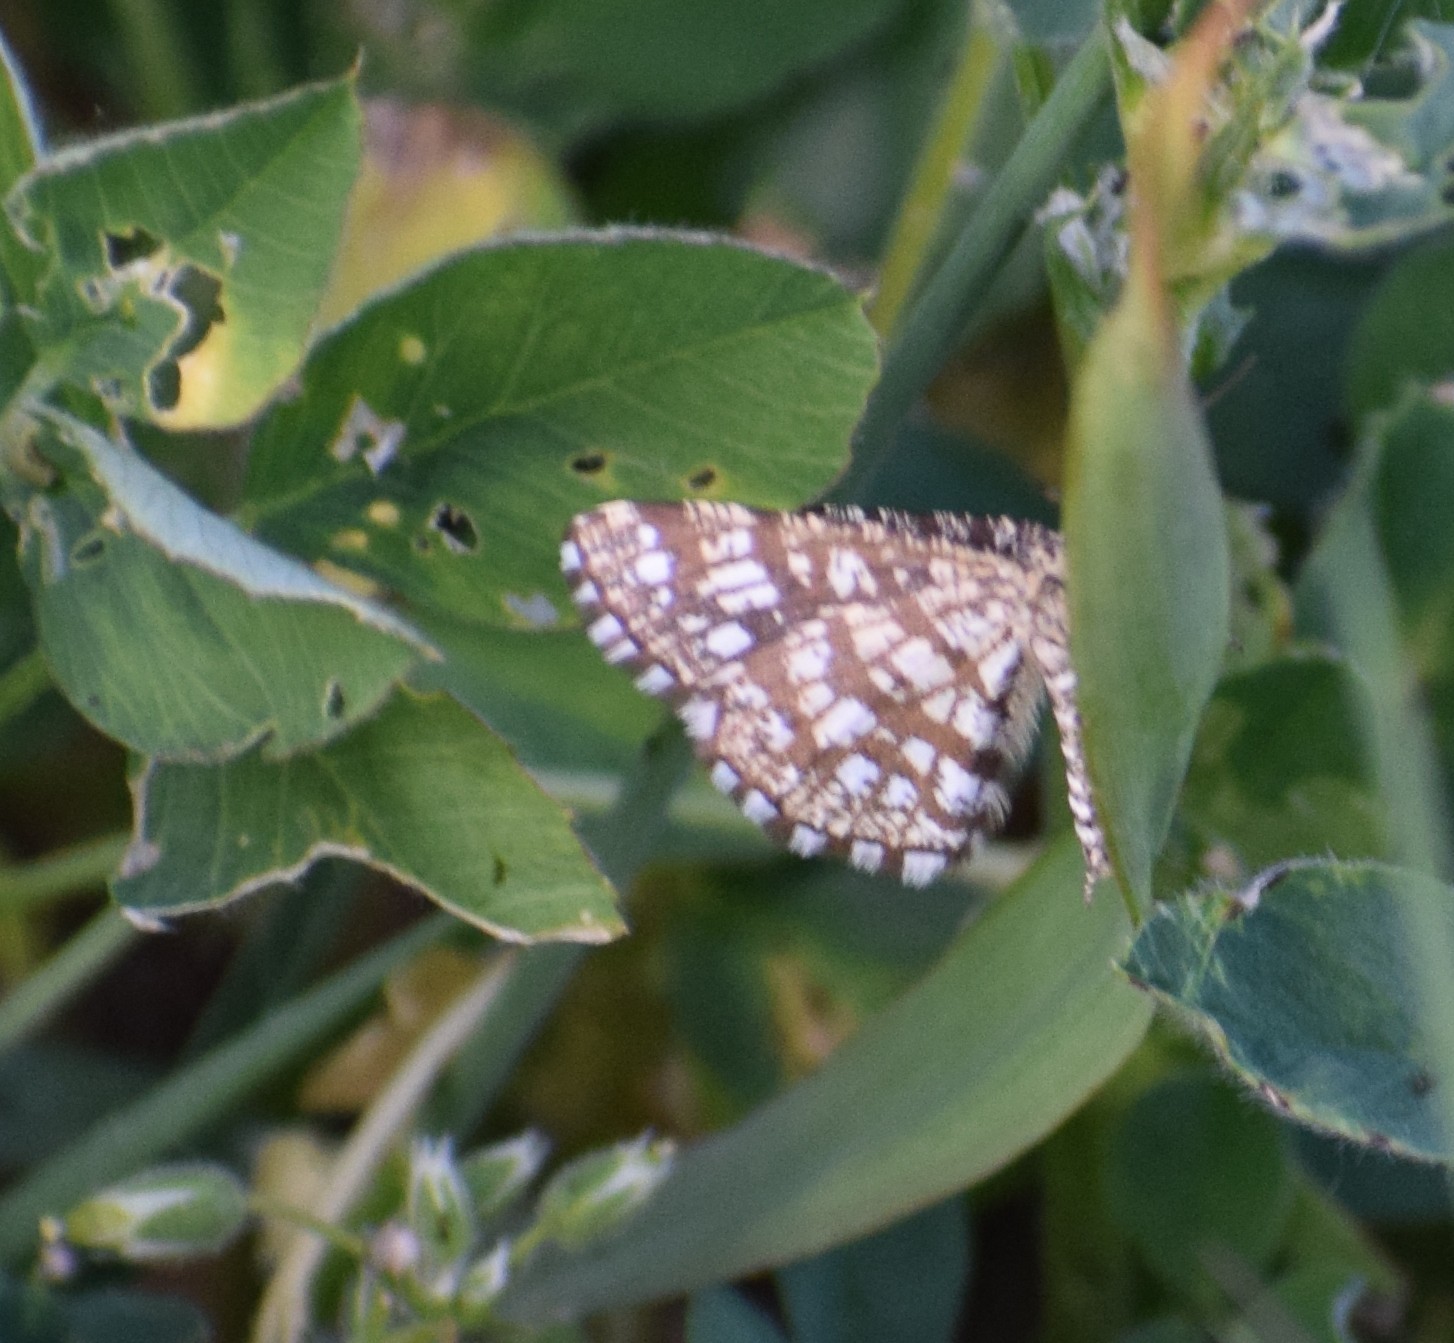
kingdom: Animalia
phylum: Arthropoda
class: Insecta
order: Lepidoptera
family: Geometridae
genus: Chiasmia
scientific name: Chiasmia clathrata
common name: Latticed heath
